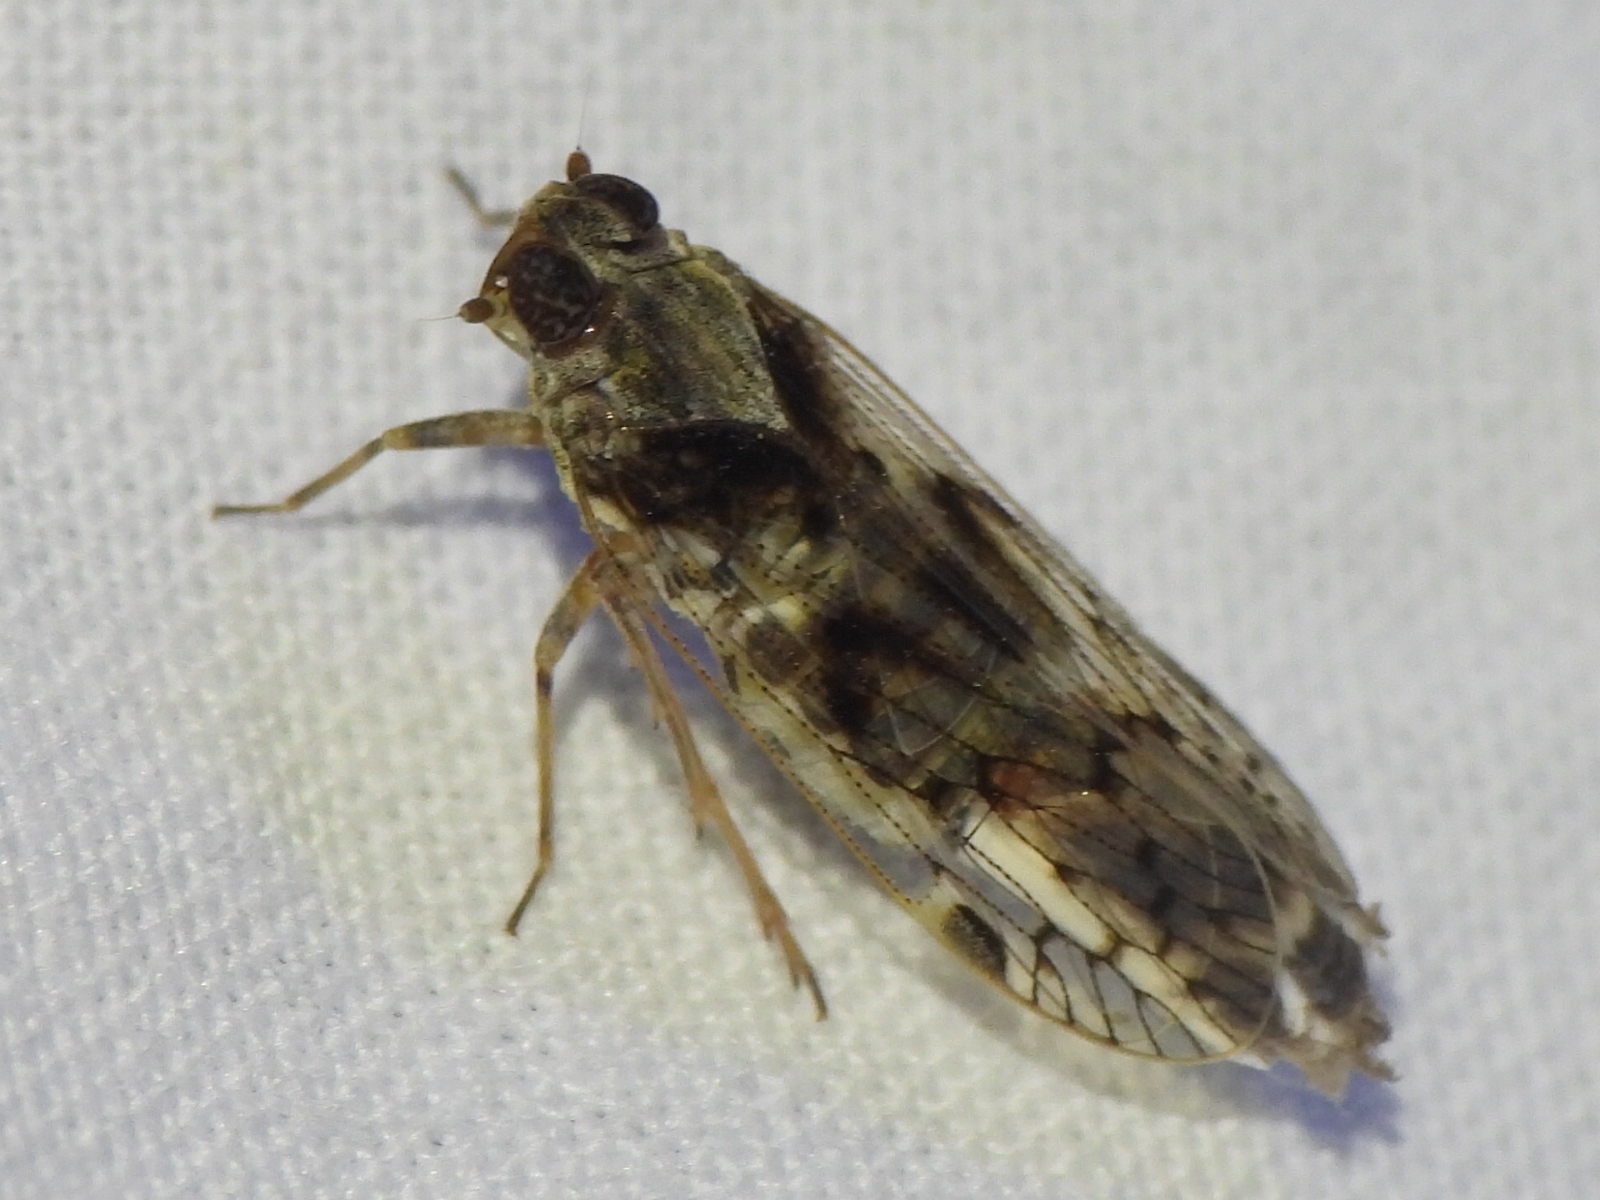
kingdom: Animalia
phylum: Arthropoda
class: Insecta
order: Hemiptera
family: Cixiidae
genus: Melanoliarus
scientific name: Melanoliarus aridus
